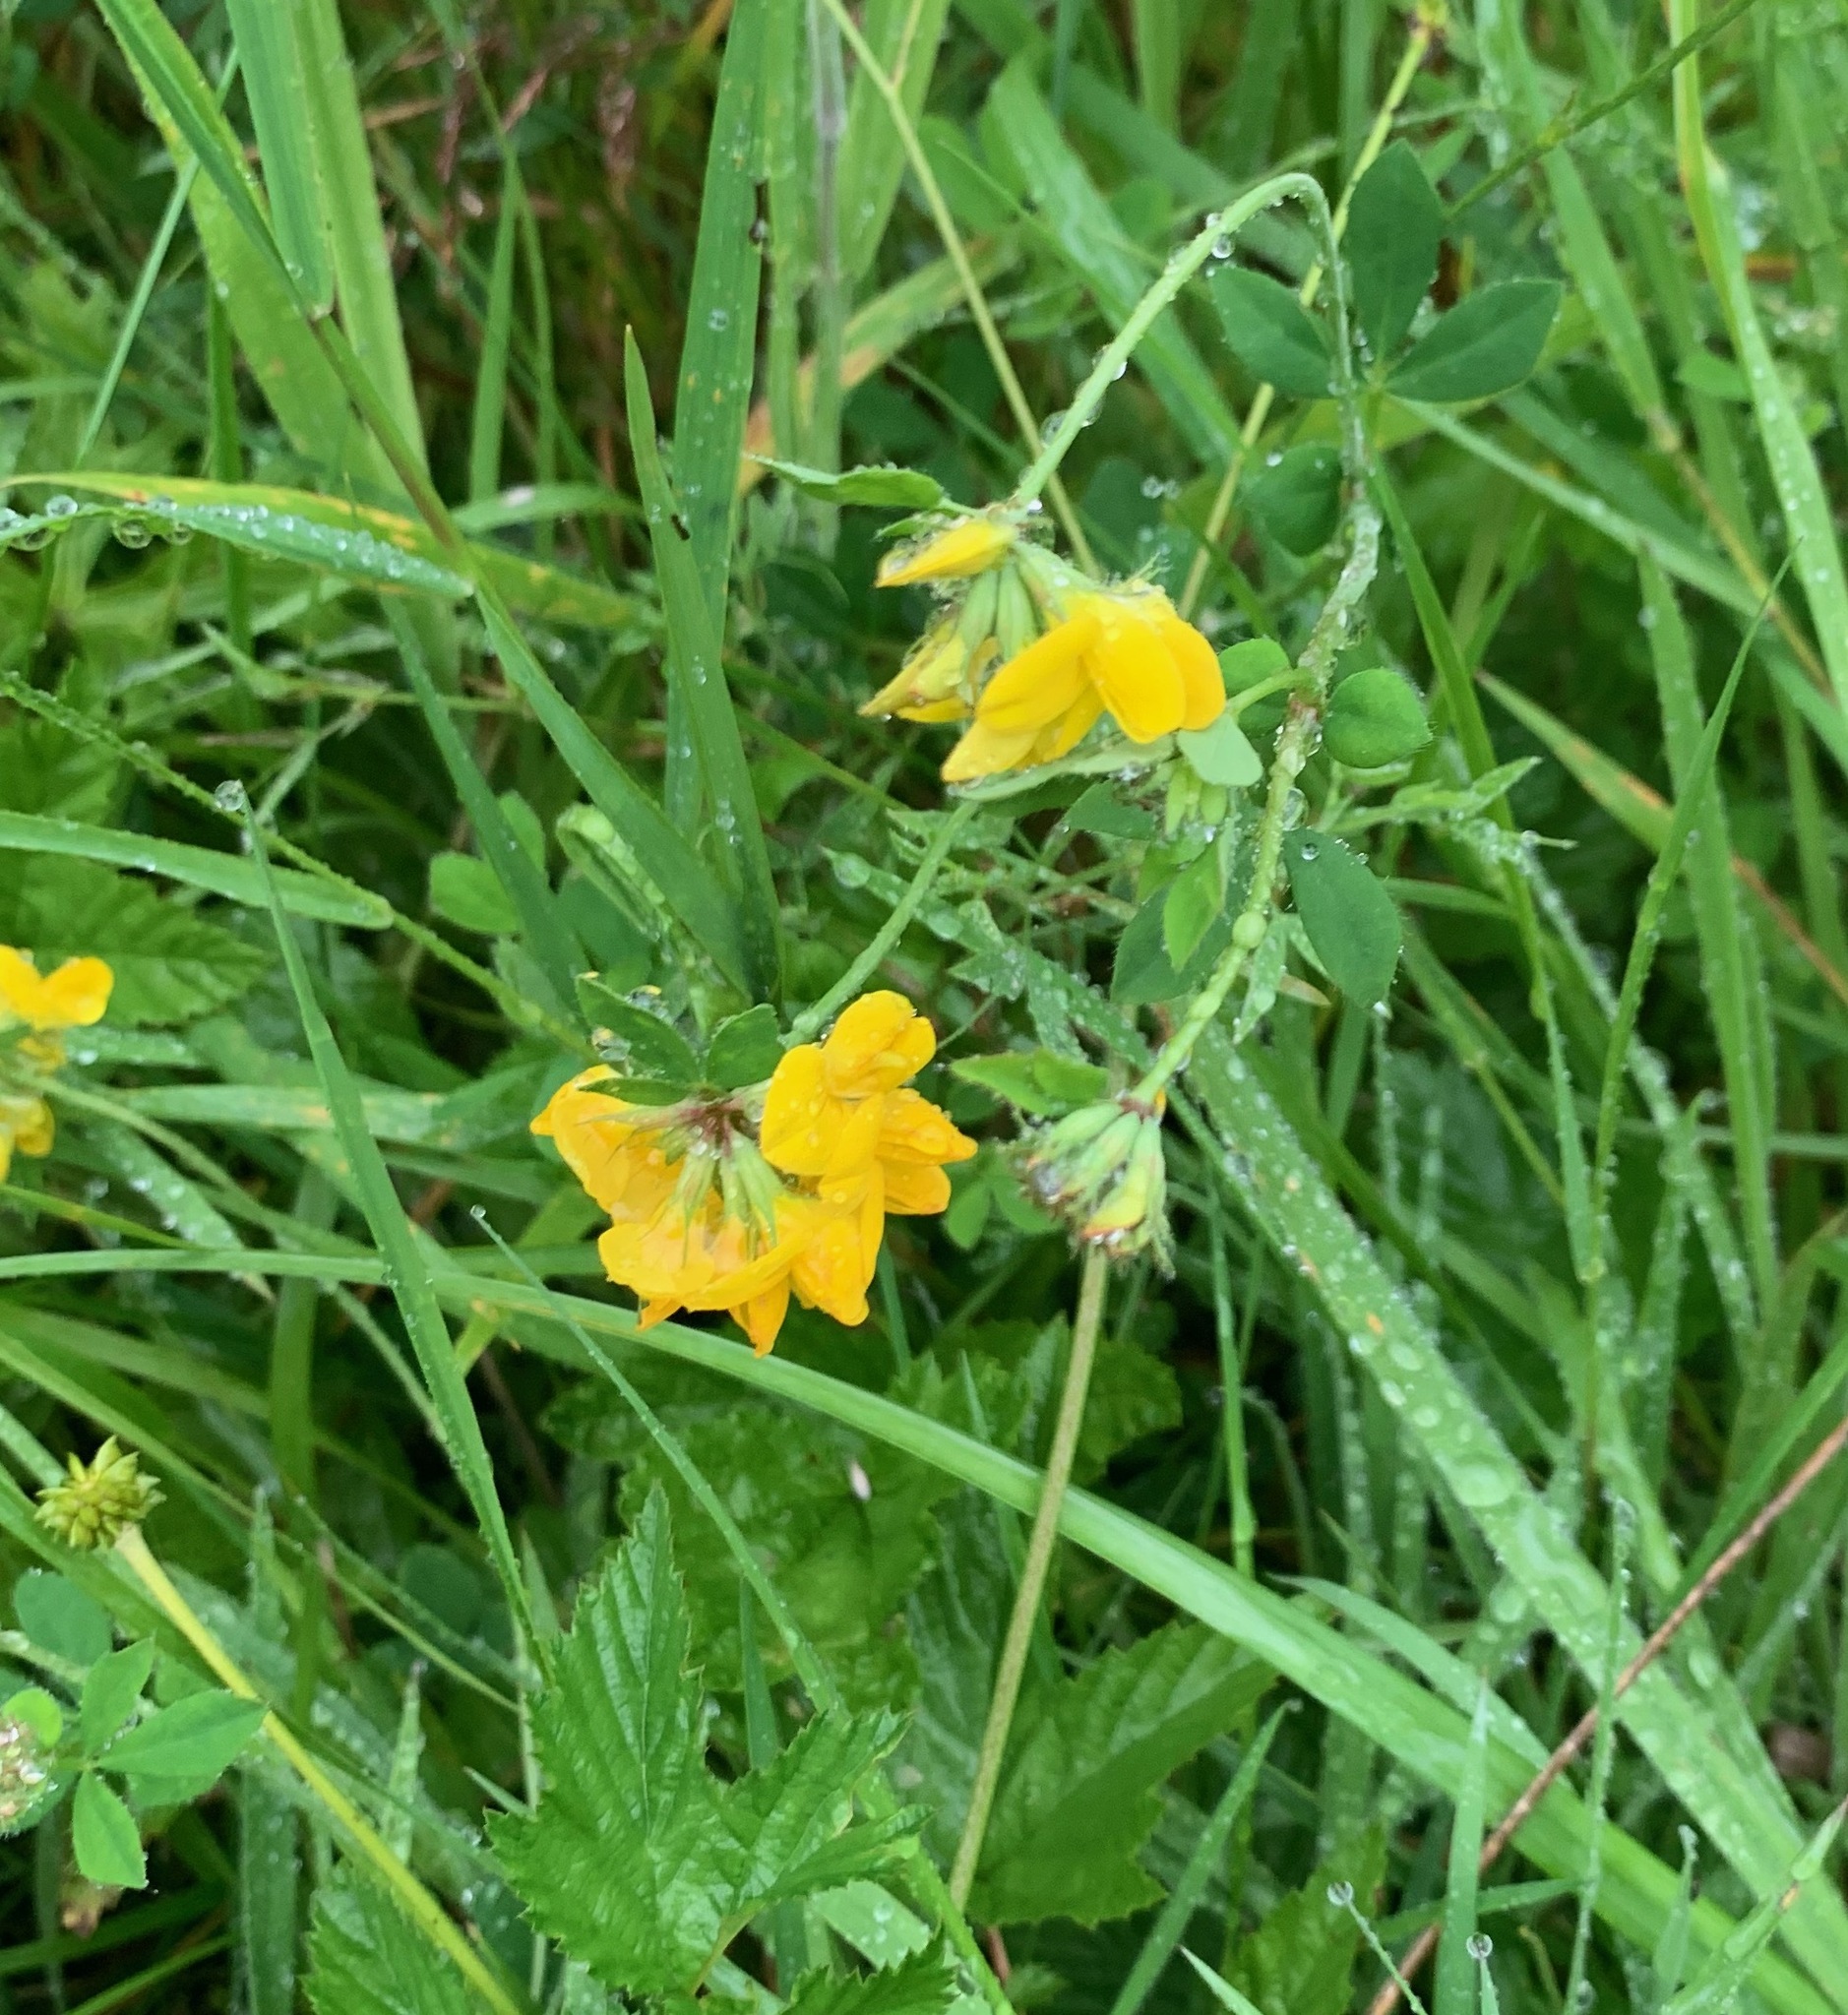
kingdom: Plantae
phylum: Tracheophyta
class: Magnoliopsida
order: Fabales
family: Fabaceae
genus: Lotus
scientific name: Lotus pedunculatus
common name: Greater birdsfoot-trefoil
